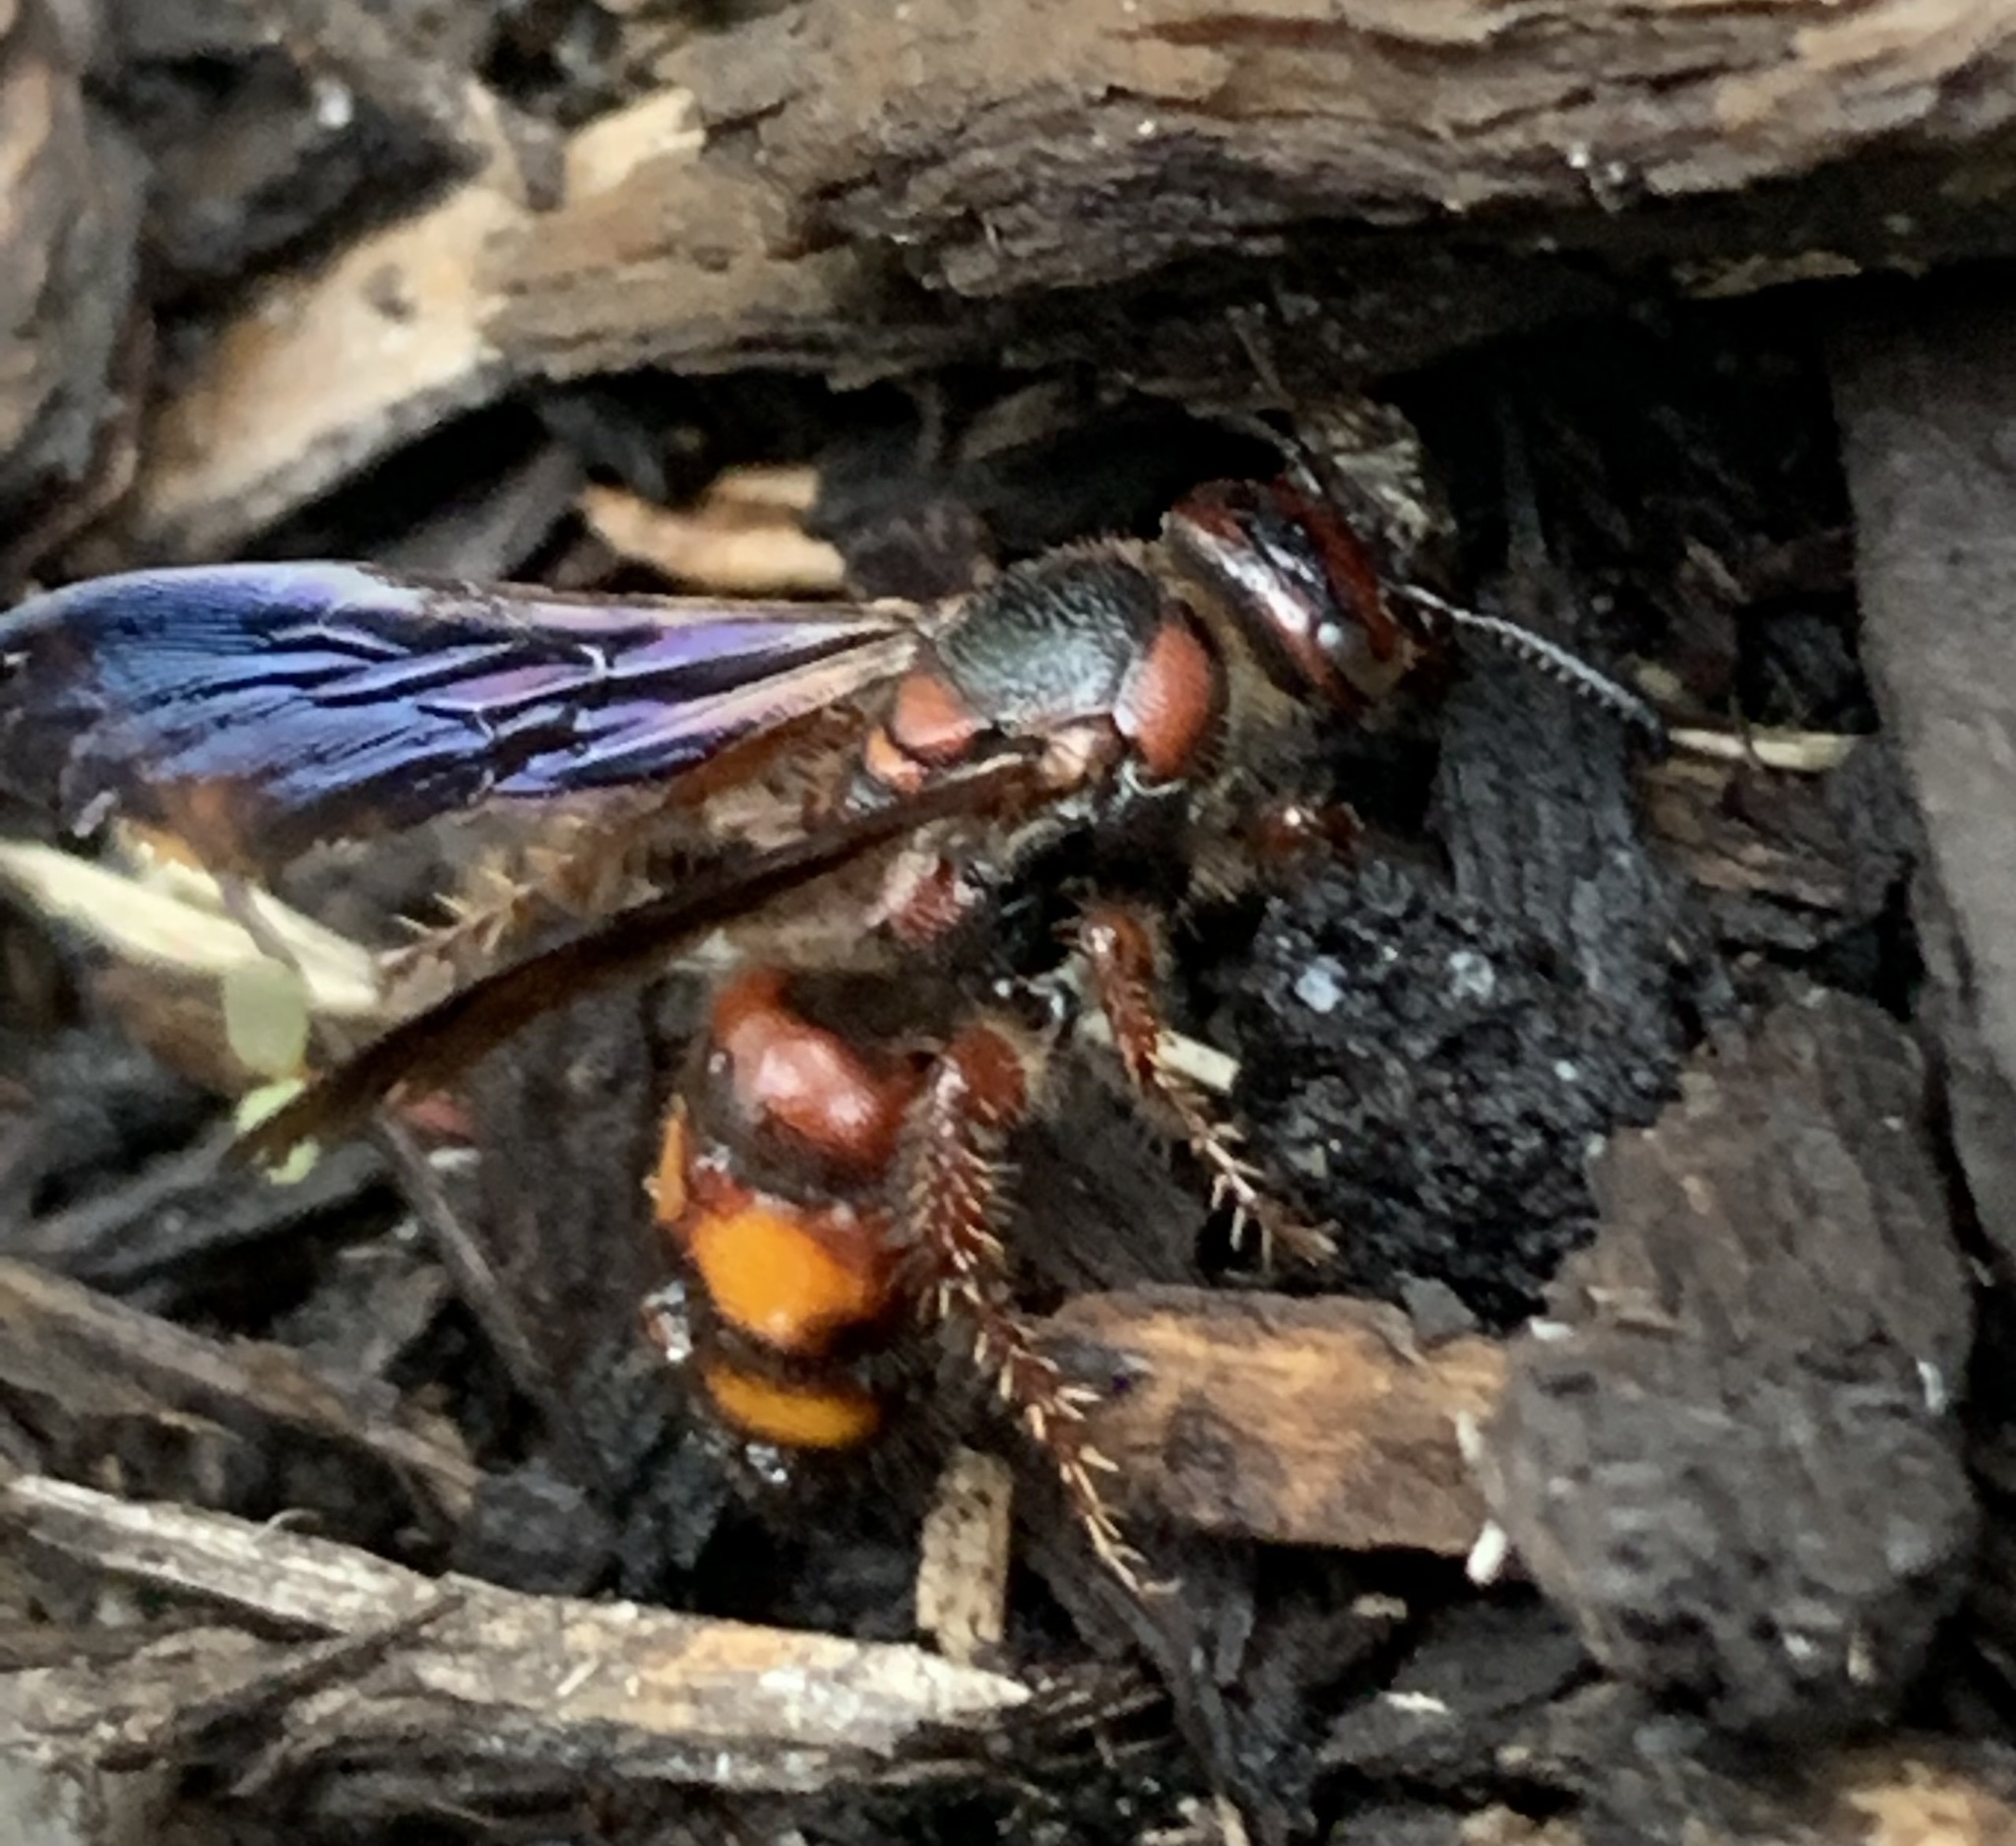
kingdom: Animalia
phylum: Arthropoda
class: Insecta
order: Hymenoptera
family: Scoliidae
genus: Scolia
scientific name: Scolia nobilitata
